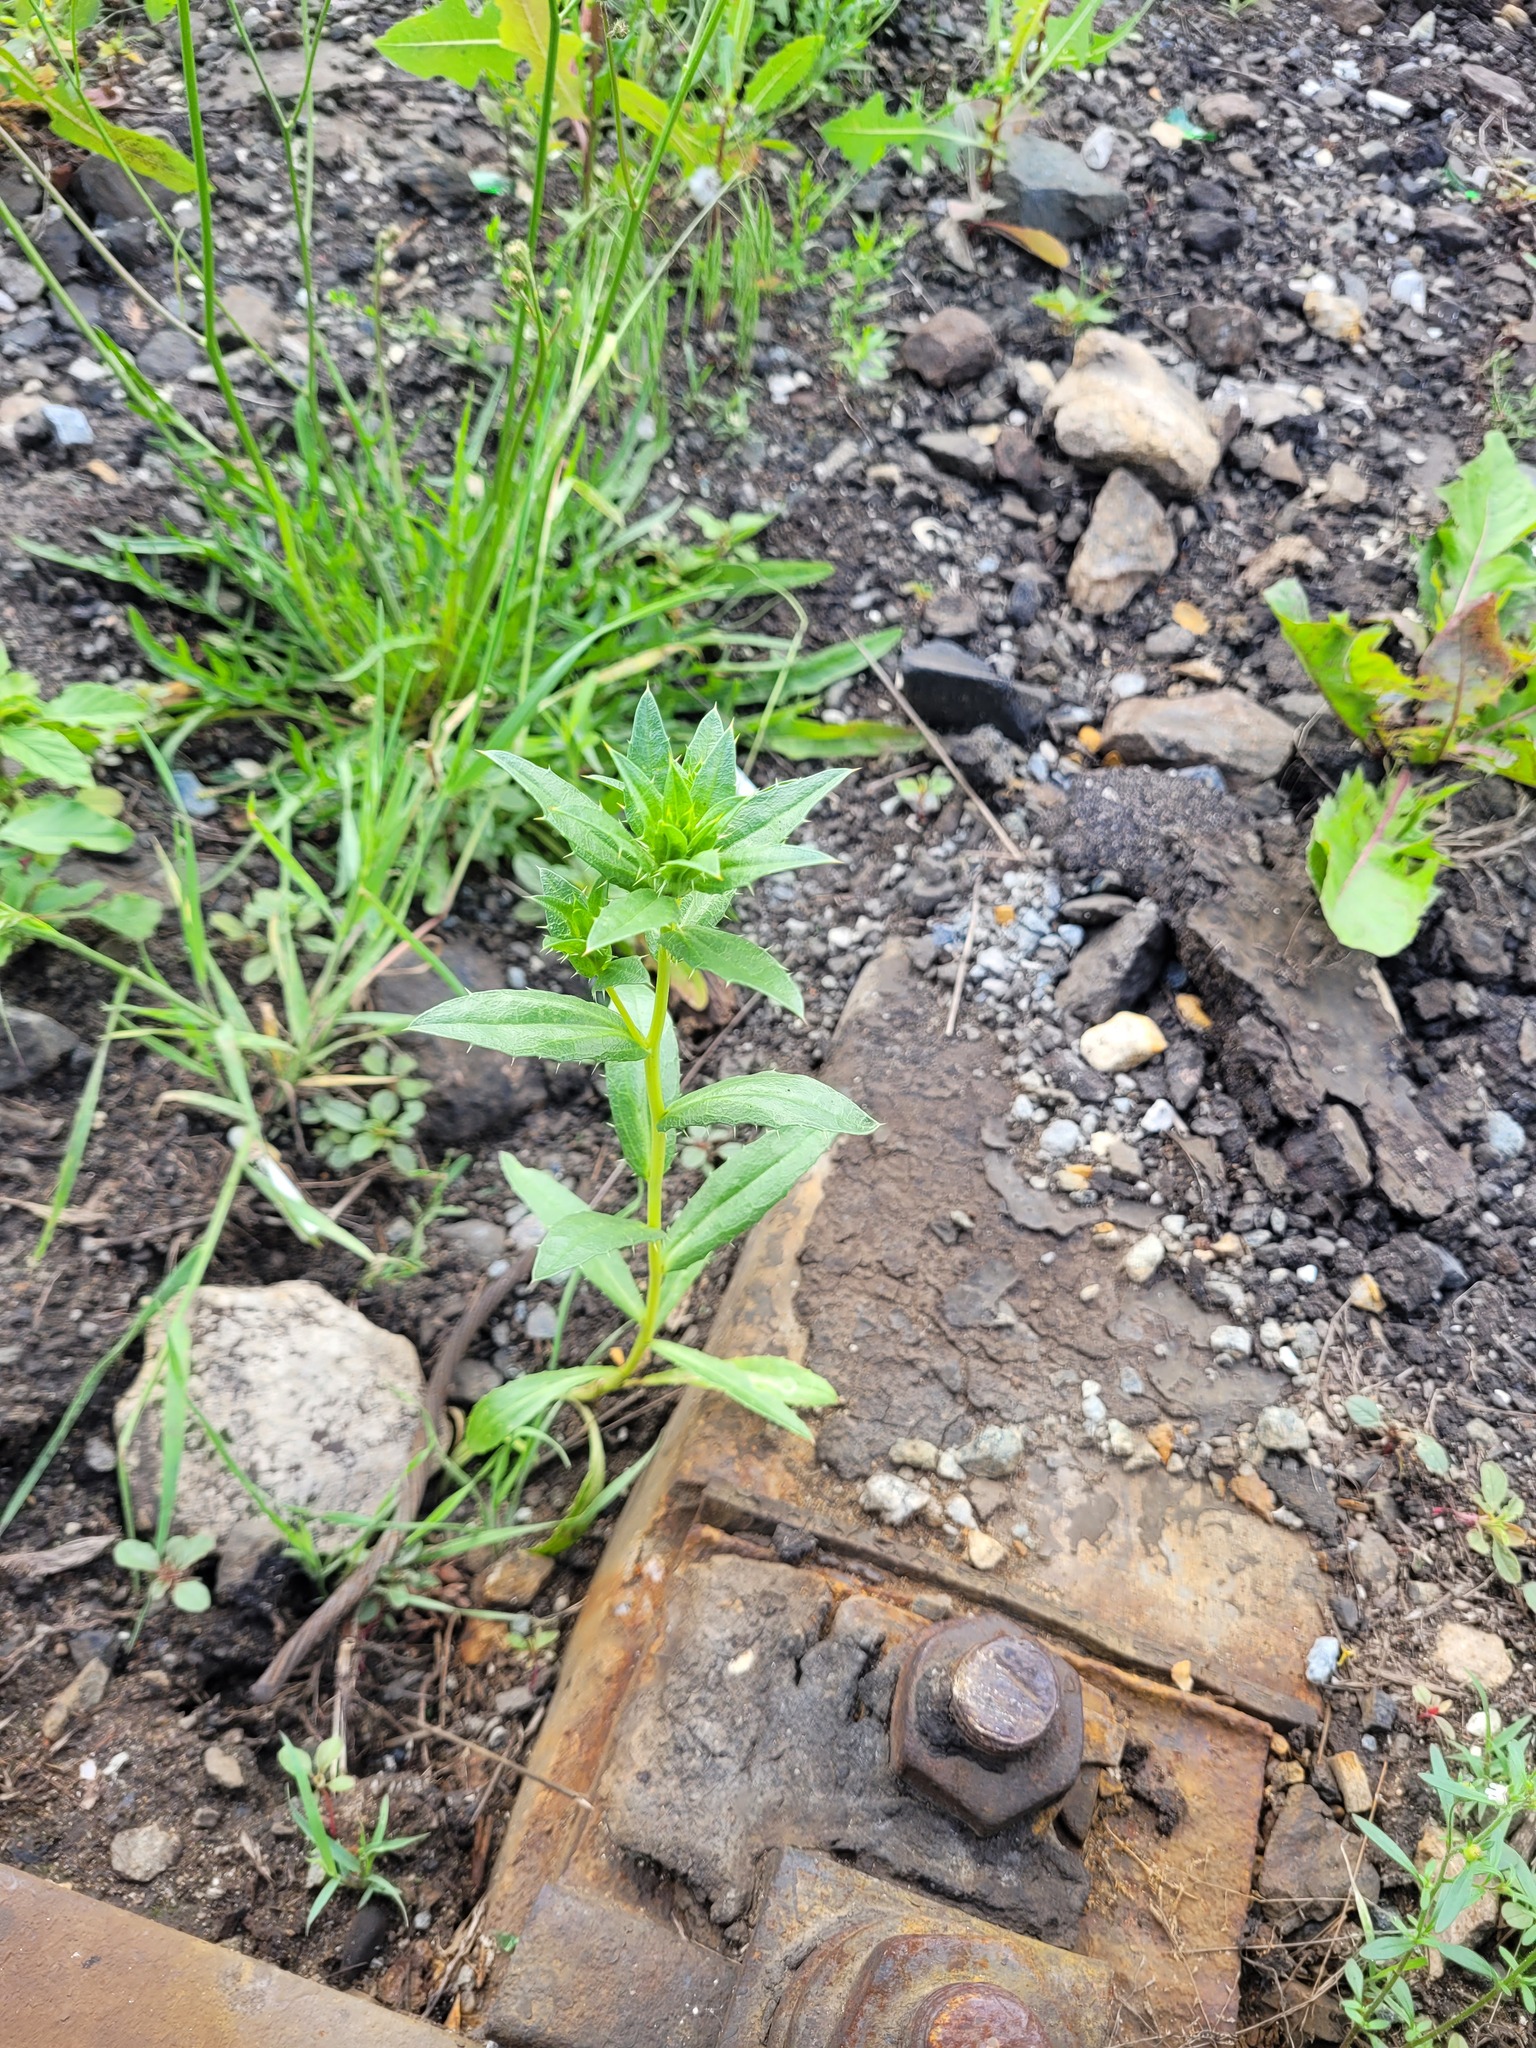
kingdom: Plantae
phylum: Tracheophyta
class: Magnoliopsida
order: Asterales
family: Asteraceae
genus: Carthamus
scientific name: Carthamus tinctorius
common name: Safflower
